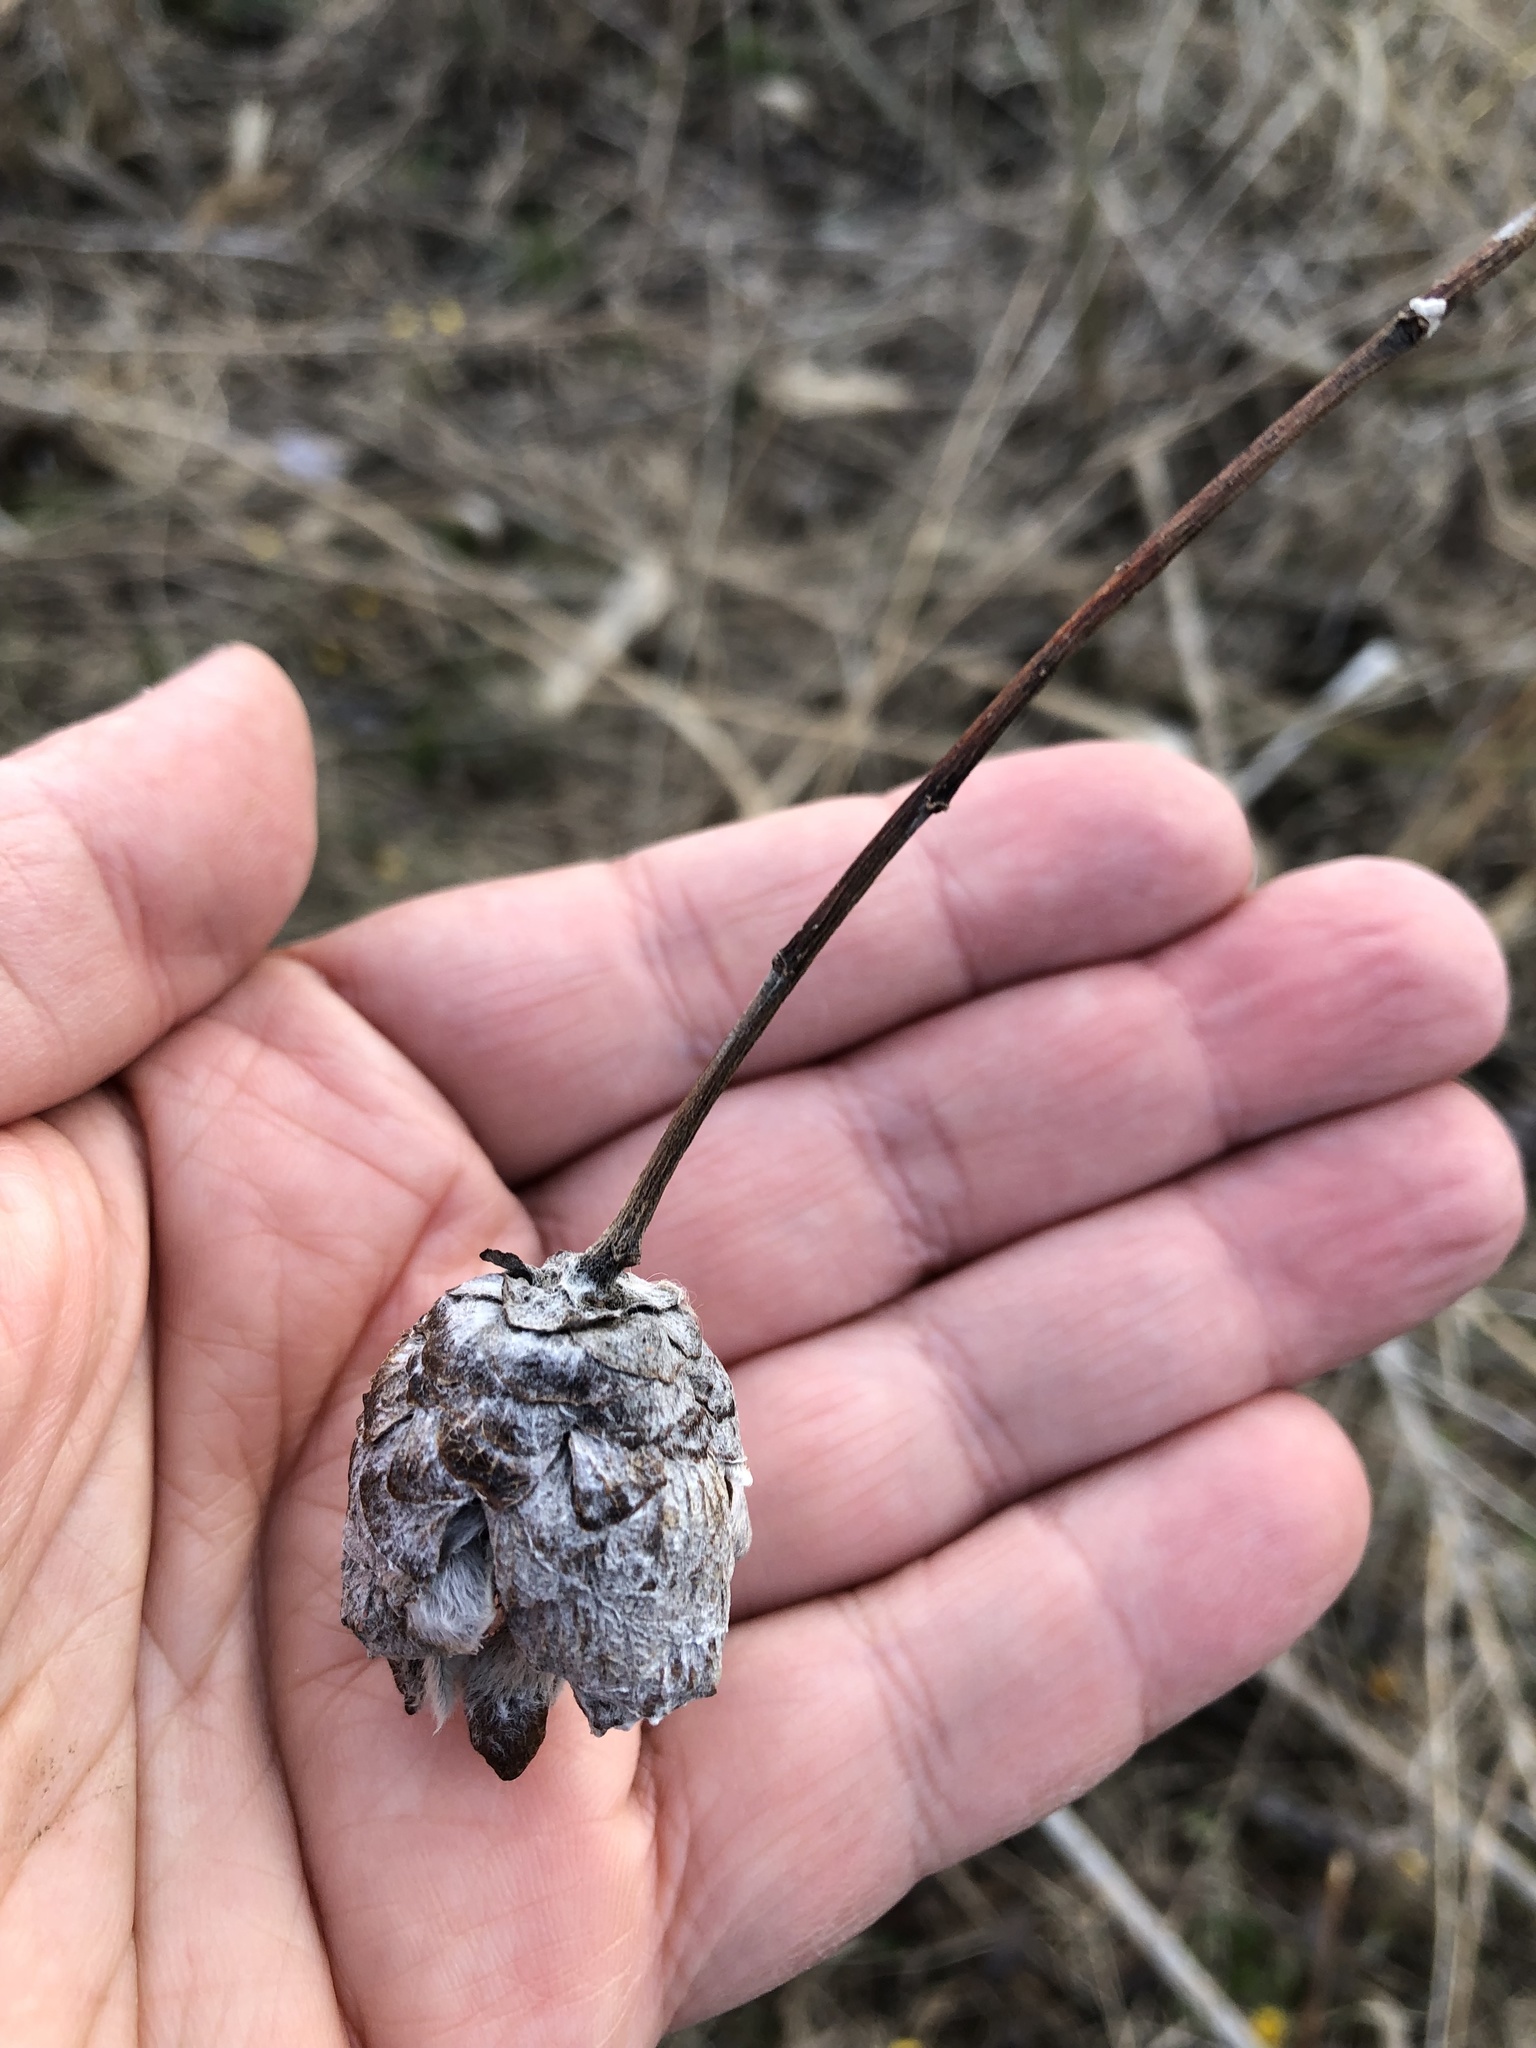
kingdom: Animalia
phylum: Arthropoda
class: Insecta
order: Diptera
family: Cecidomyiidae
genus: Rabdophaga
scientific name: Rabdophaga strobiloides
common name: Willow pinecone gall midge
